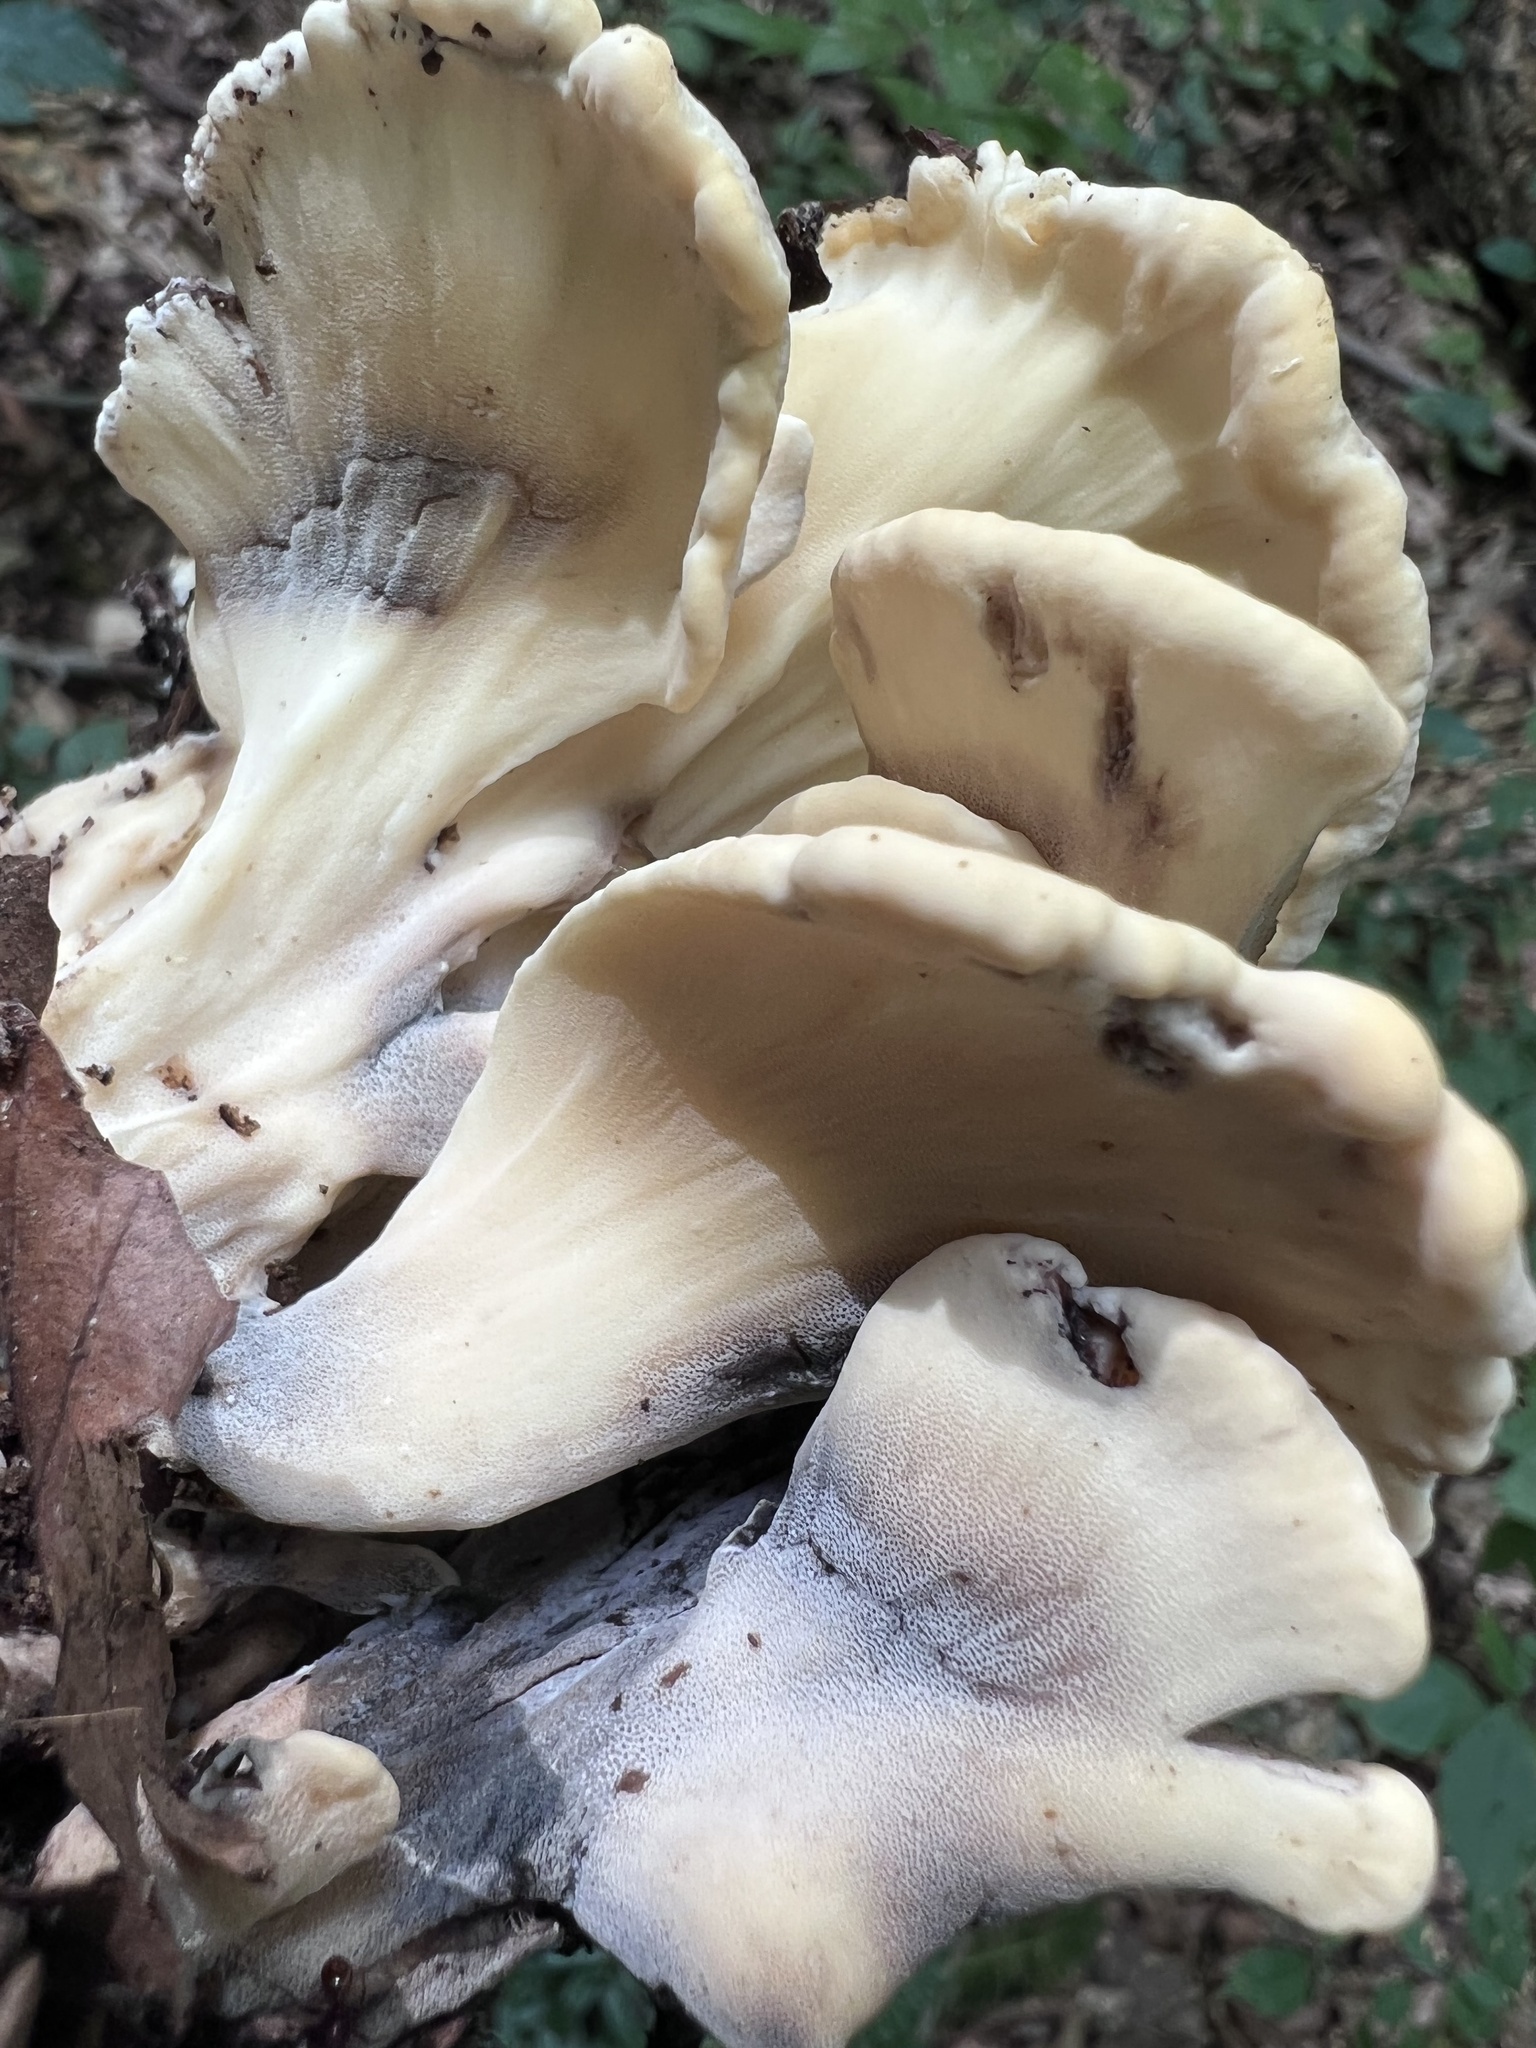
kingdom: Fungi
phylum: Basidiomycota
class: Agaricomycetes
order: Polyporales
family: Meripilaceae
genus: Meripilus
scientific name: Meripilus sumstinei
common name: Black-staining polypore
